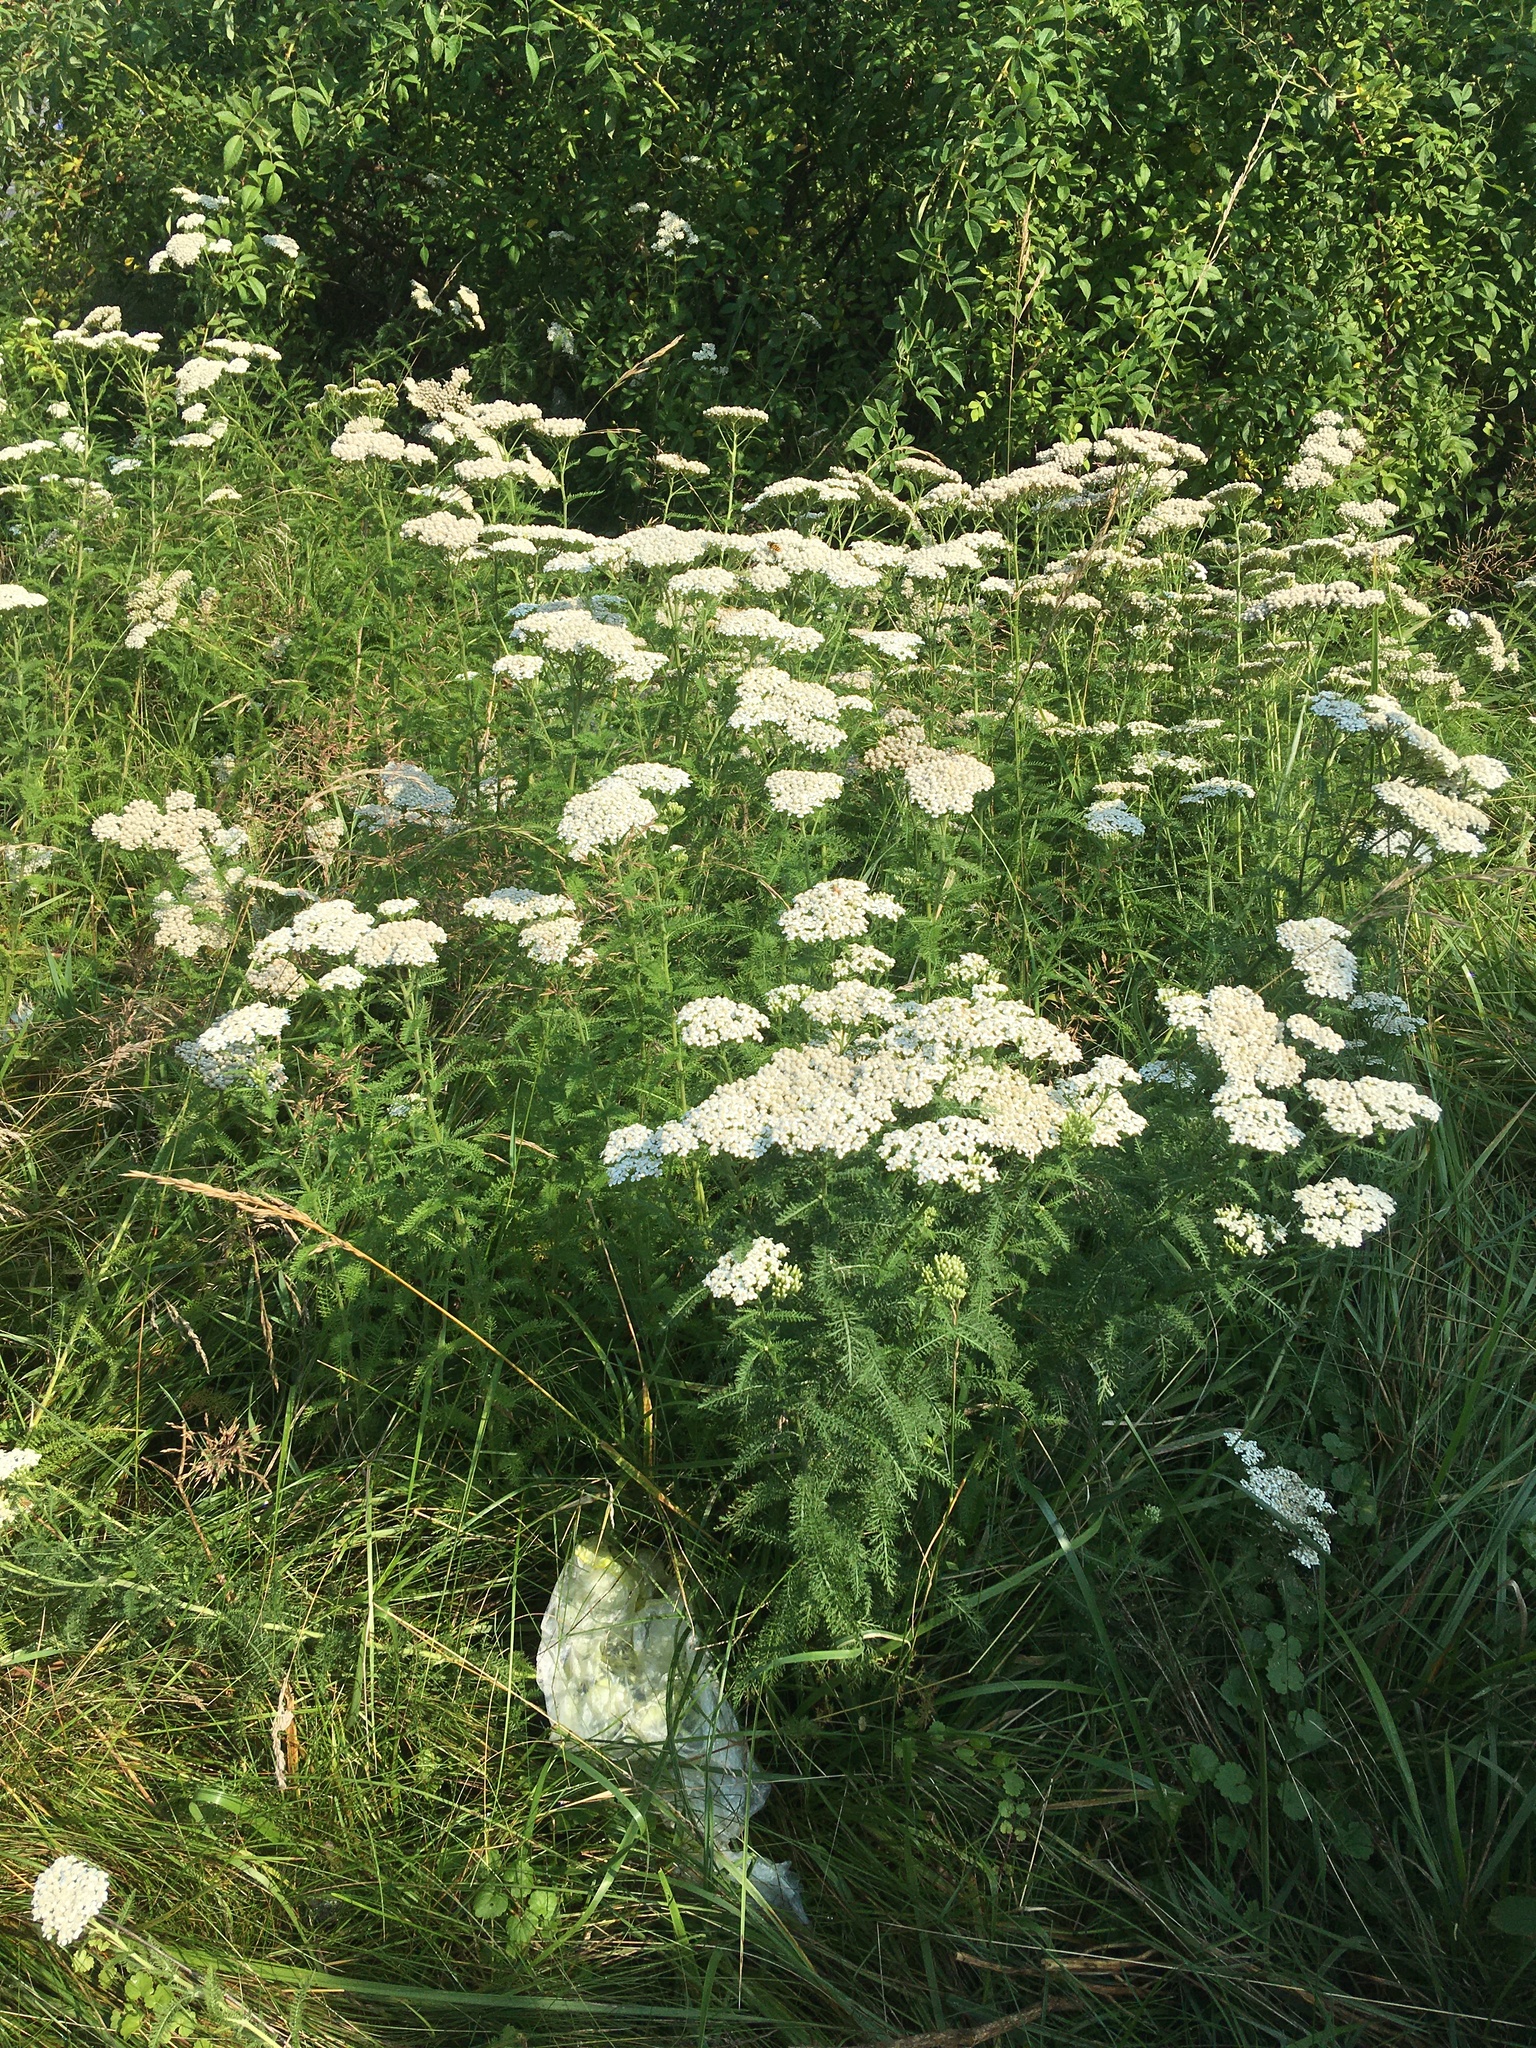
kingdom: Plantae
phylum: Tracheophyta
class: Magnoliopsida
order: Asterales
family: Asteraceae
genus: Achillea
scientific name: Achillea millefolium
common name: Yarrow
